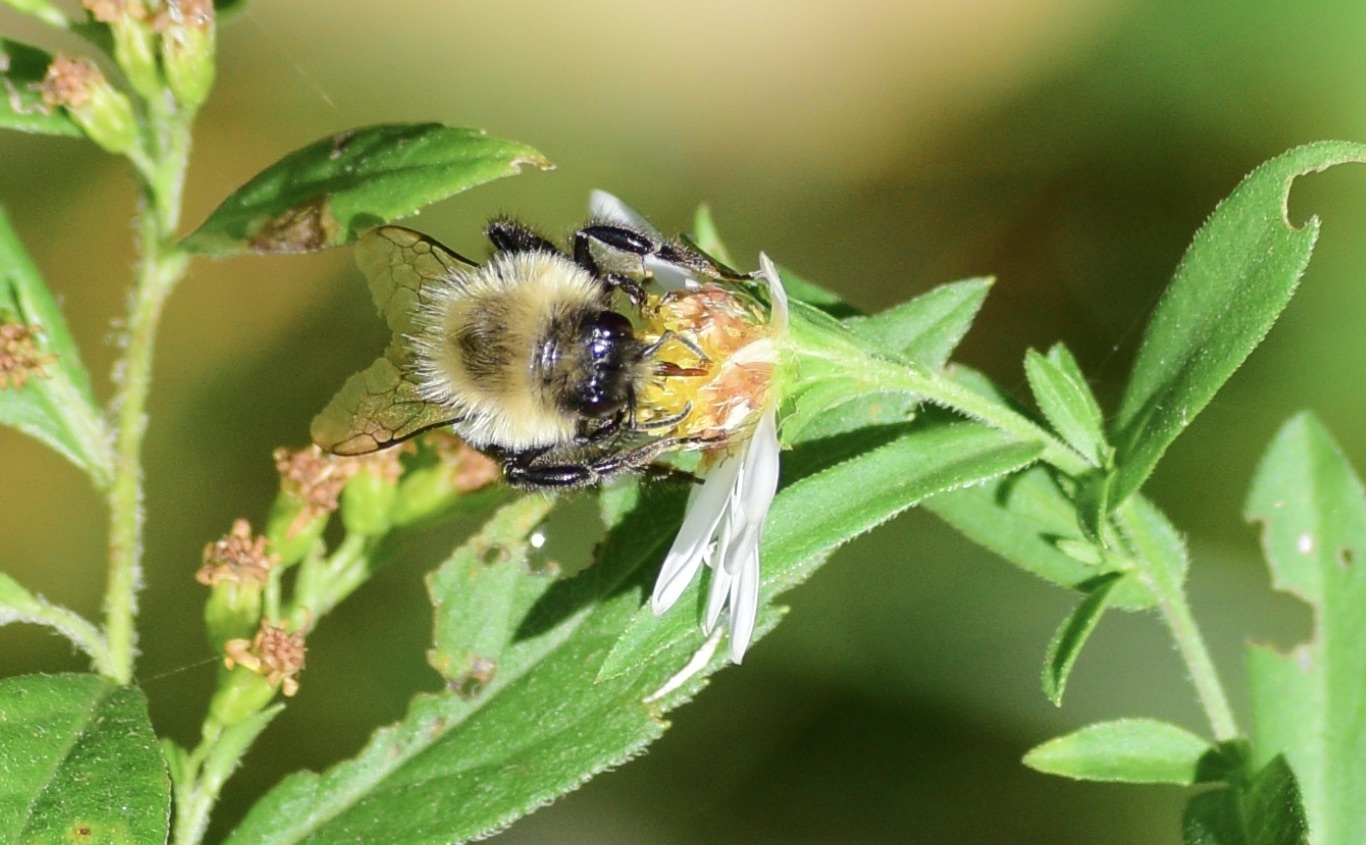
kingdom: Animalia
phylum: Arthropoda
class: Insecta
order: Hymenoptera
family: Apidae
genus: Bombus
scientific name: Bombus impatiens
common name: Common eastern bumble bee
